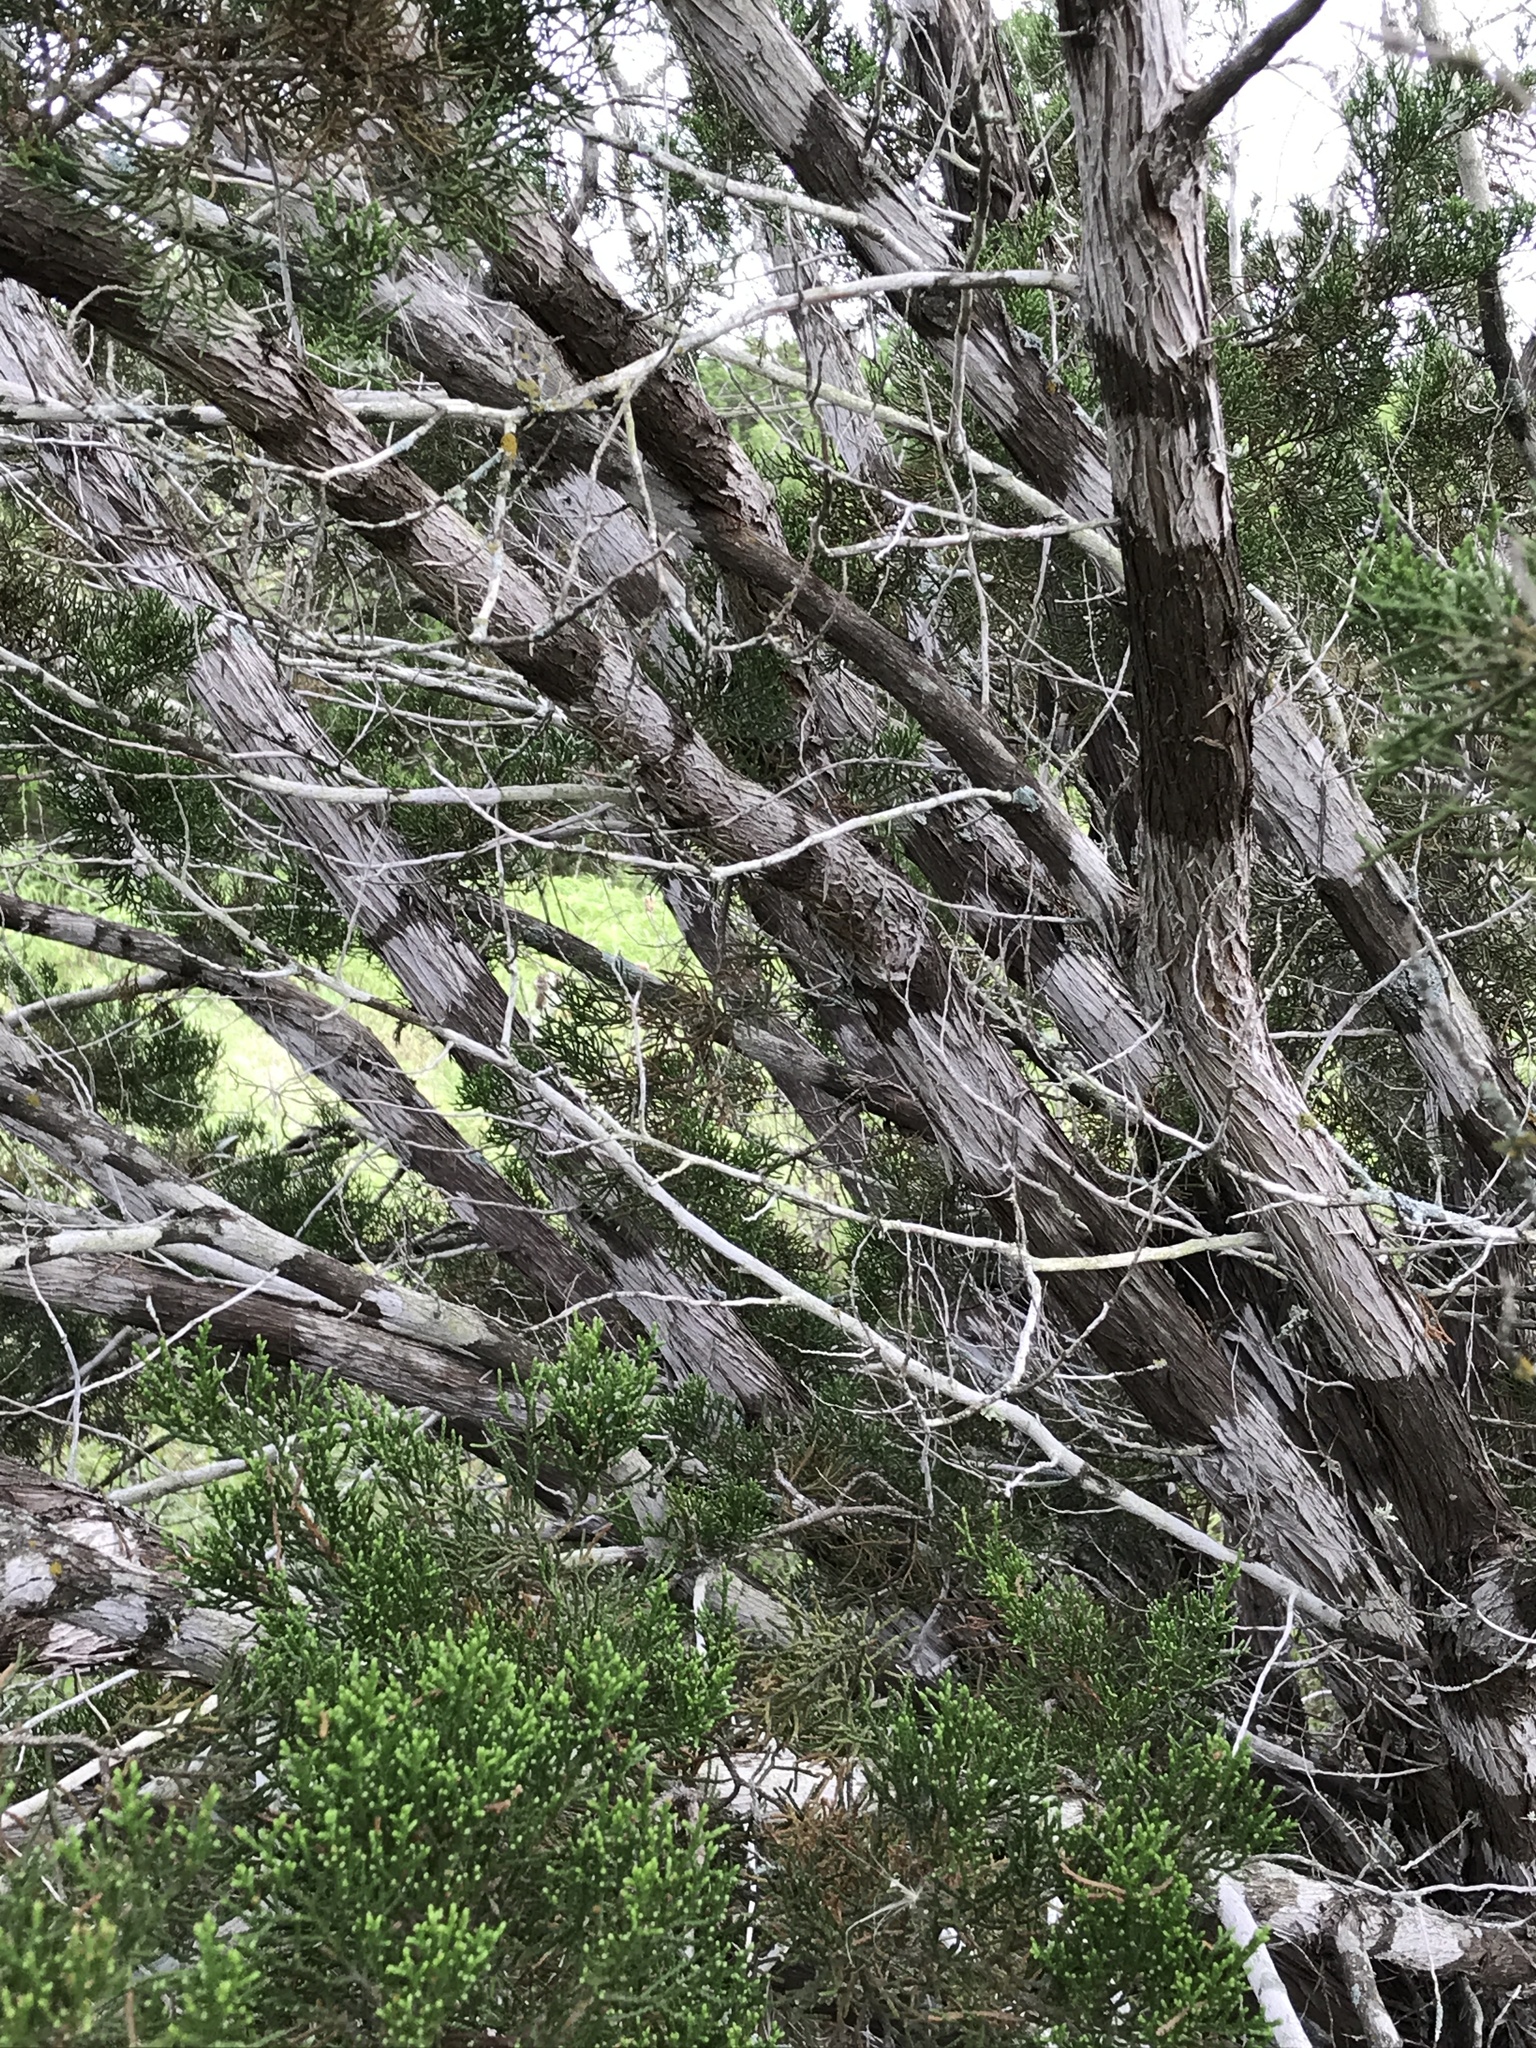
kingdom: Fungi
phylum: Ascomycota
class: Lecanoromycetes
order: Ostropales
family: Stictidaceae
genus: Robergea
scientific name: Robergea
